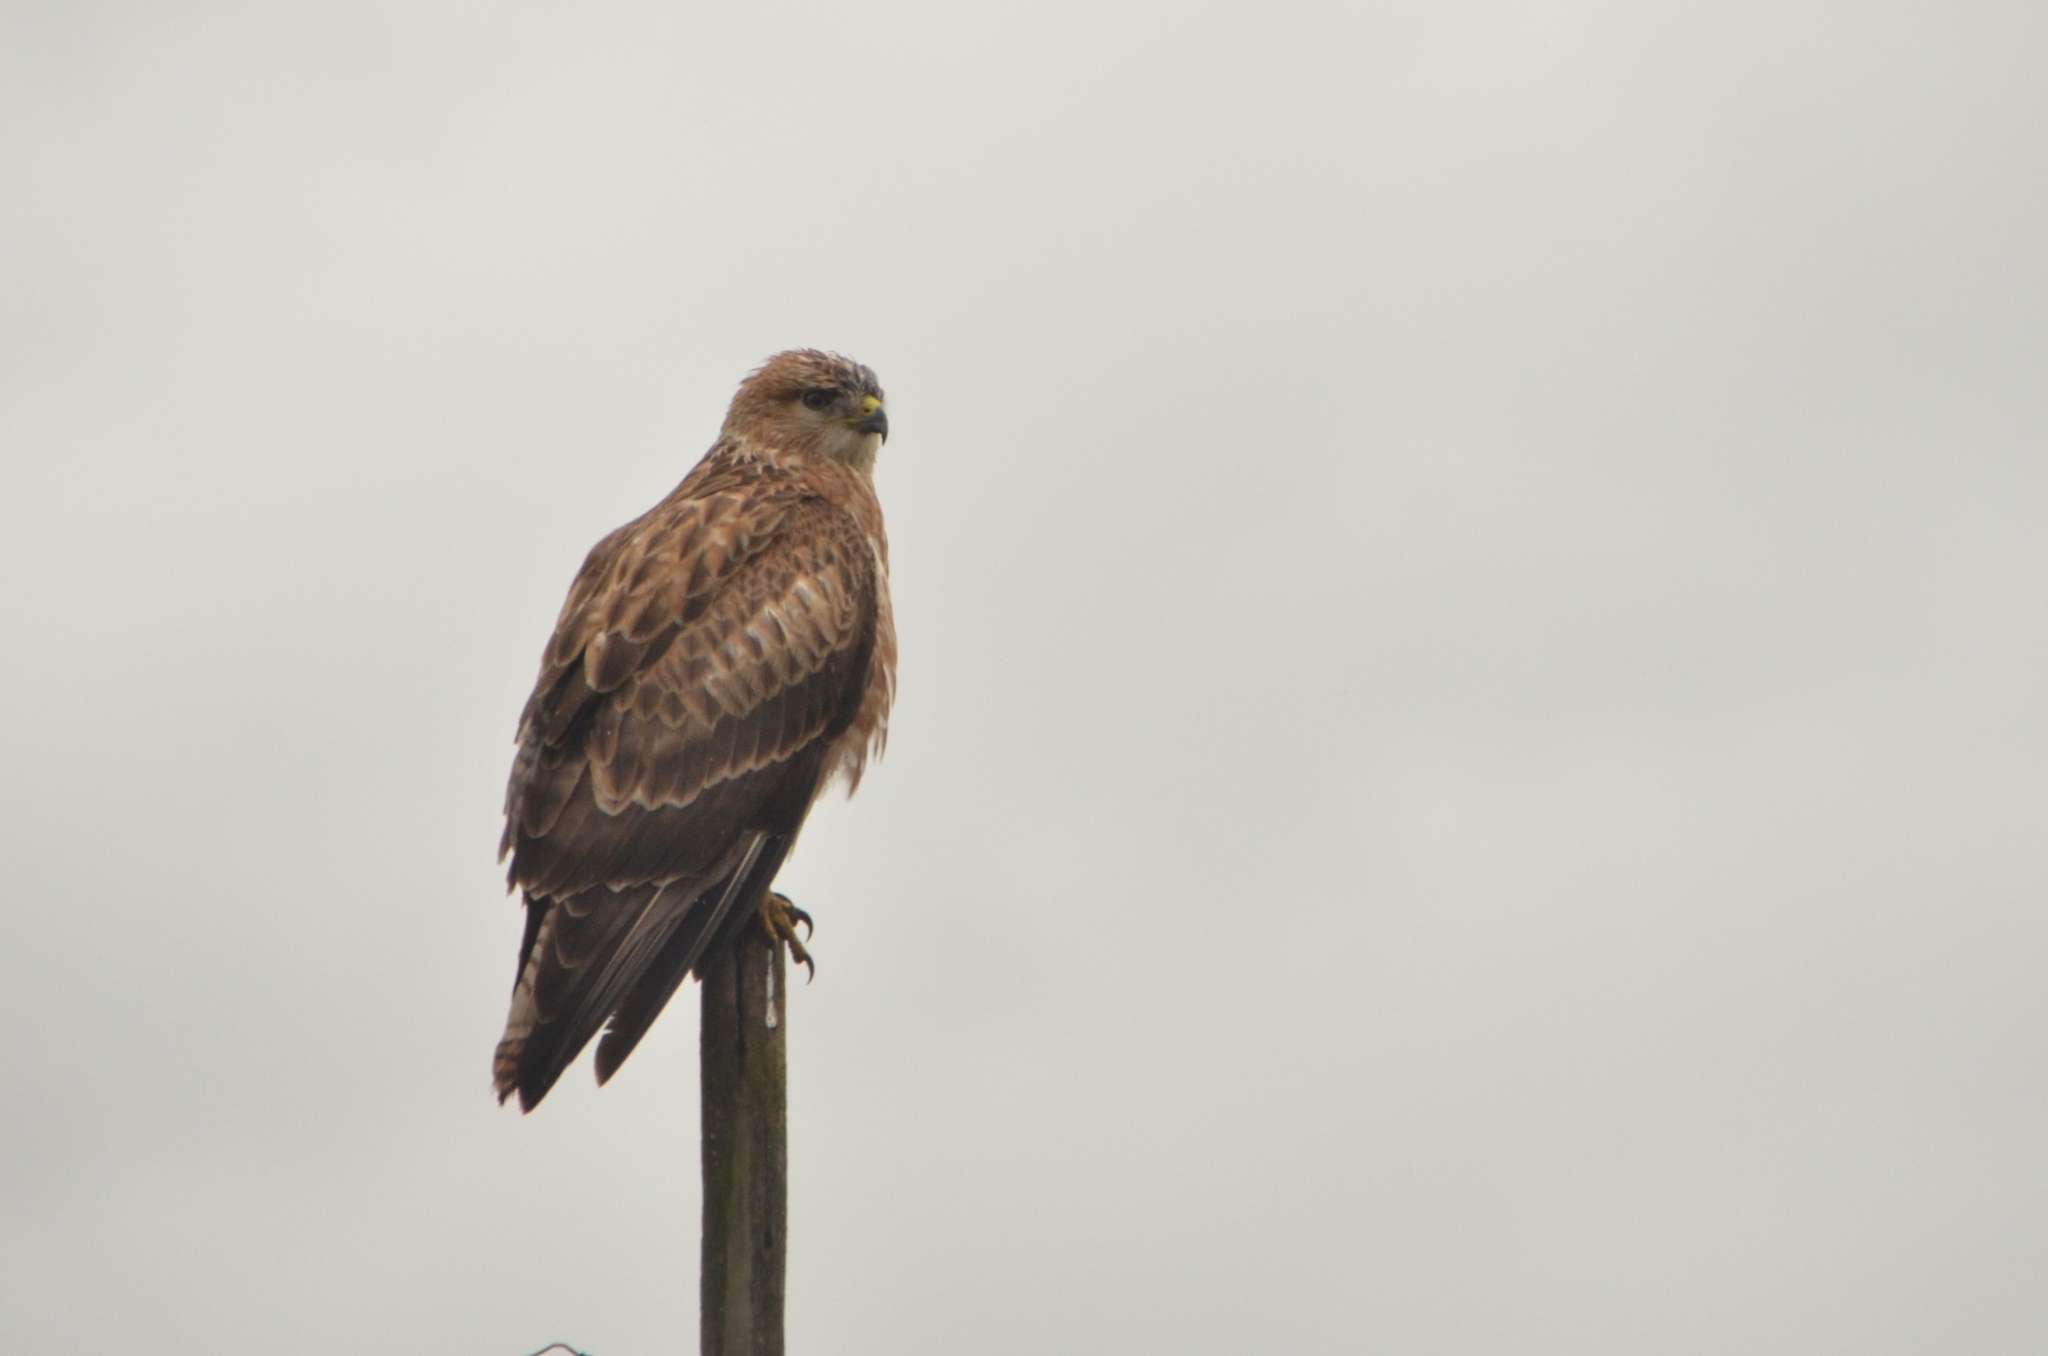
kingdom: Animalia
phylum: Chordata
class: Aves
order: Accipitriformes
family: Accipitridae
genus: Buteo
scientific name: Buteo buteo
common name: Common buzzard
